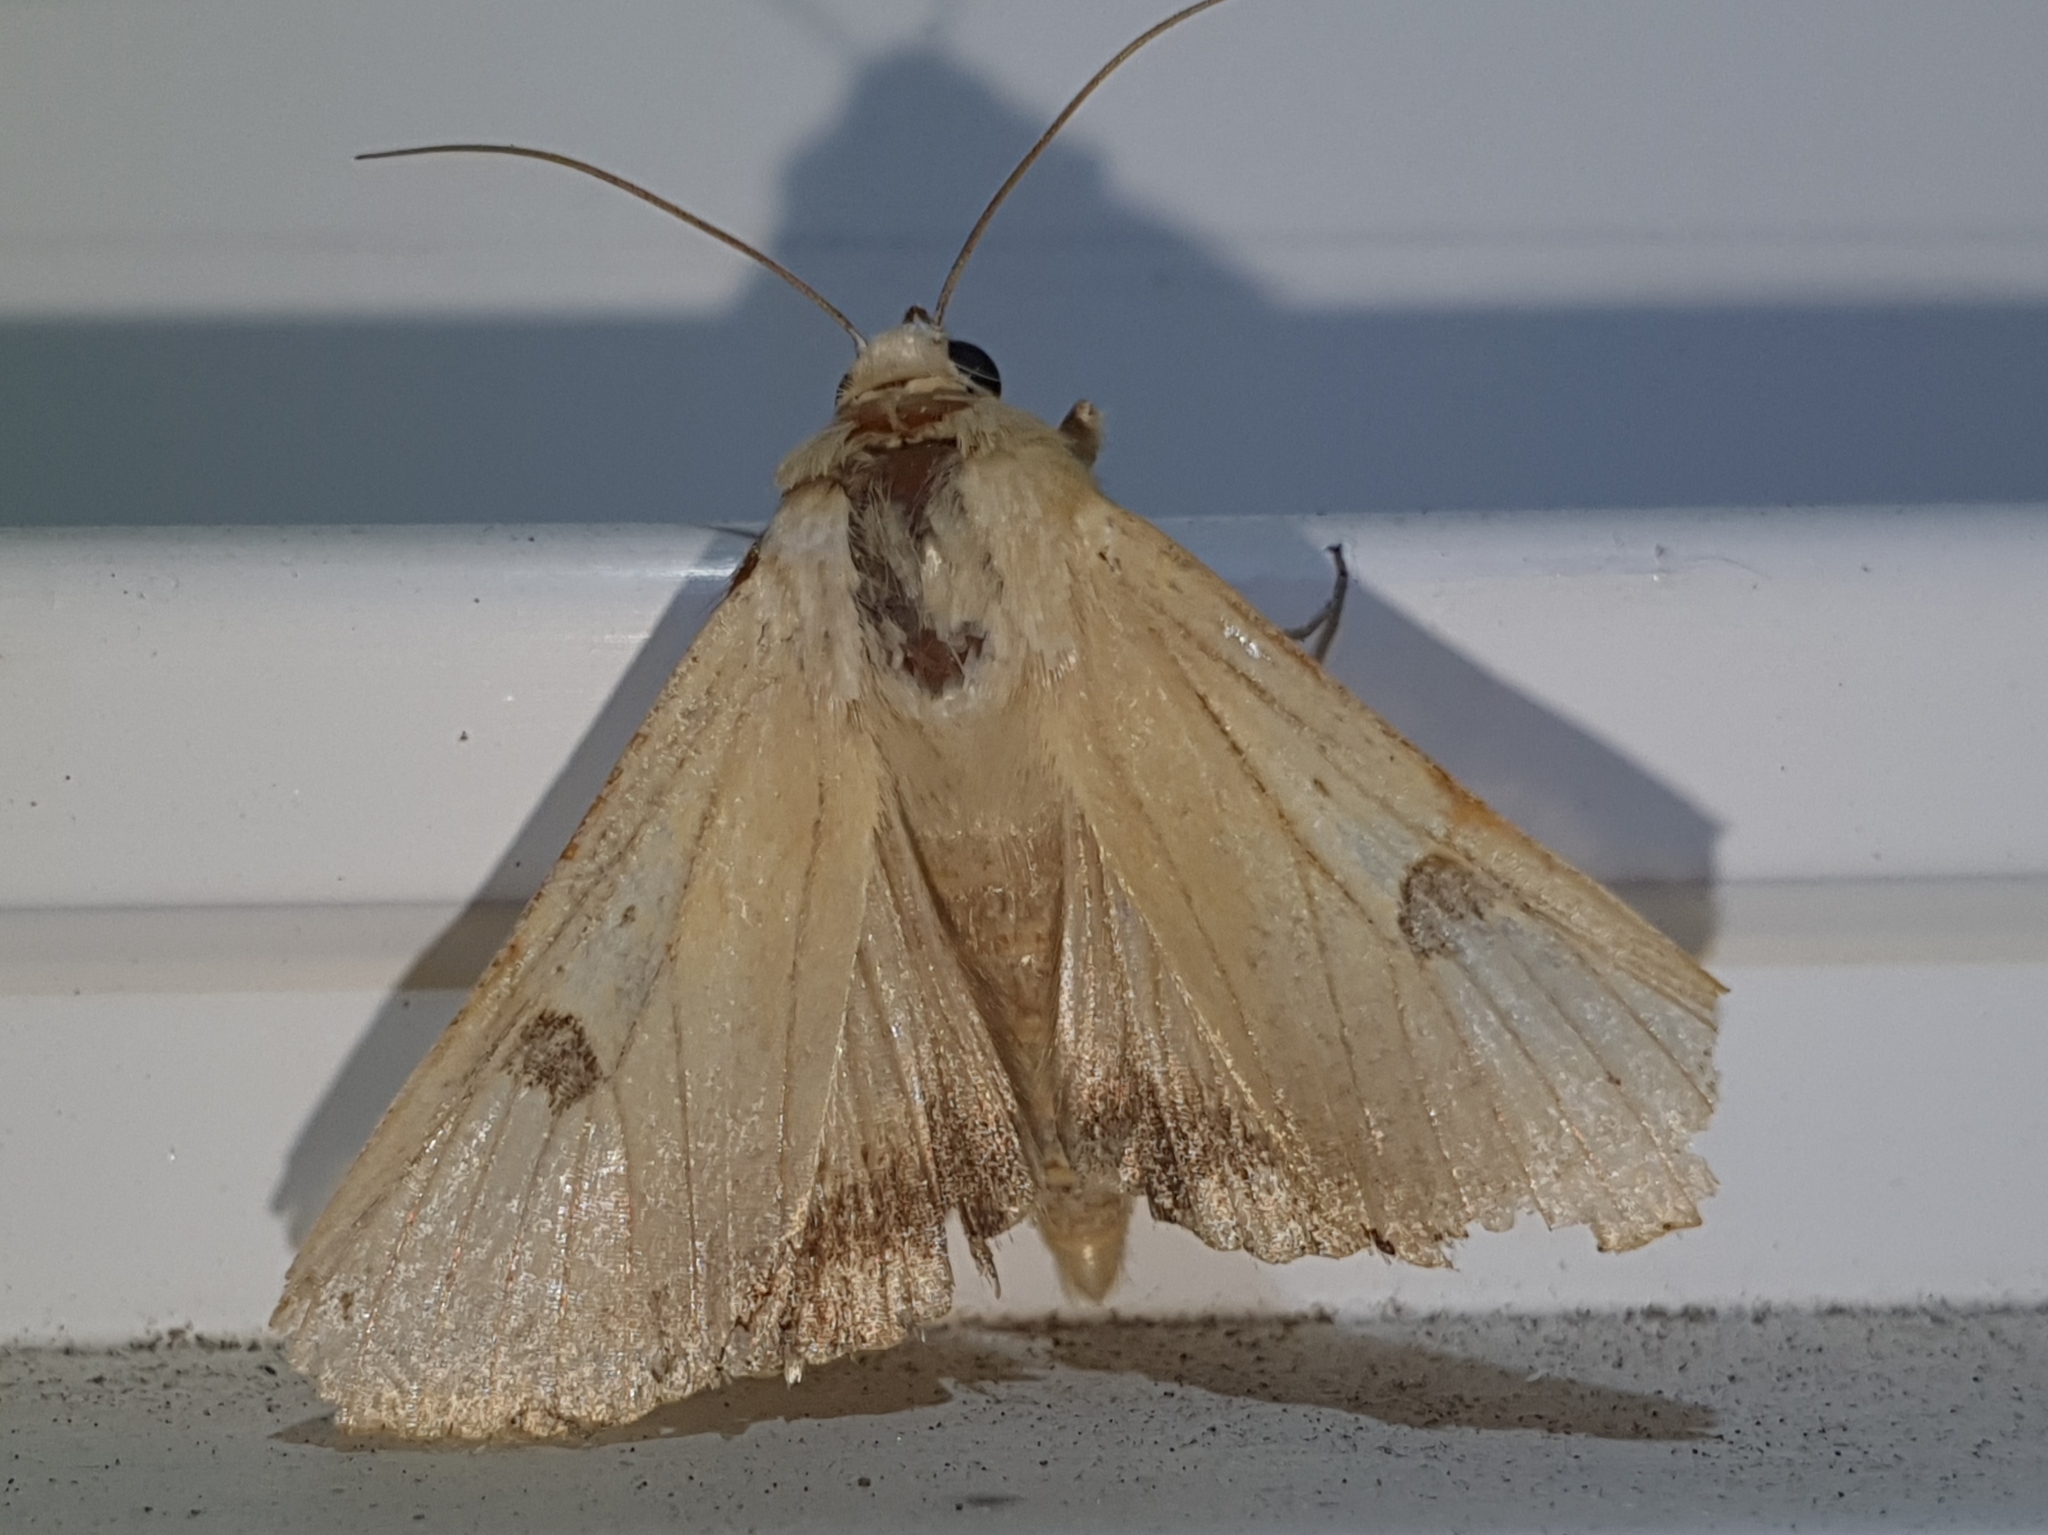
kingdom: Animalia
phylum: Arthropoda
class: Insecta
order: Lepidoptera
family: Noctuidae
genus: Heliothis
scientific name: Heliothis peltigera
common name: Bordered straw
